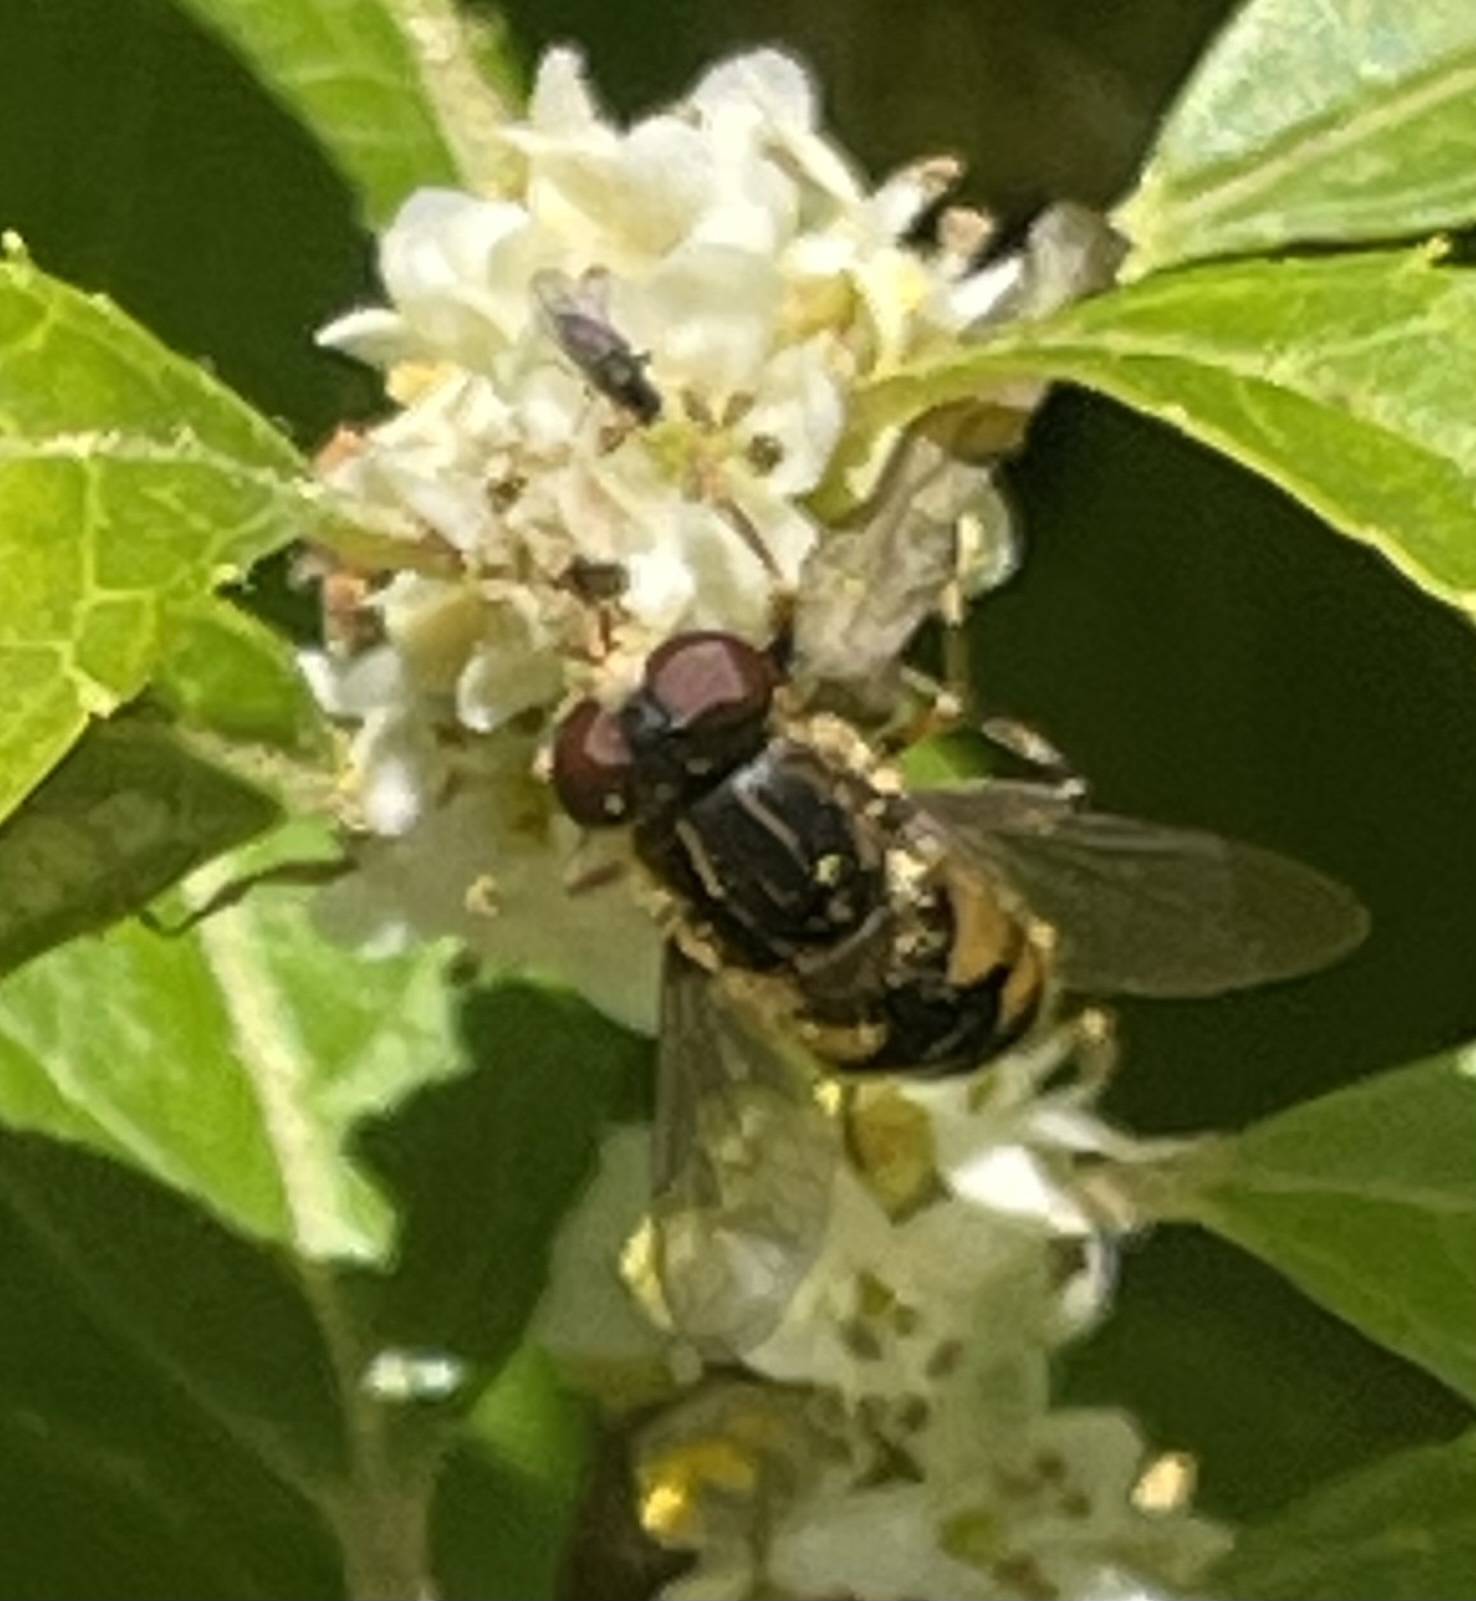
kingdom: Animalia
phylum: Arthropoda
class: Insecta
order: Diptera
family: Syrphidae
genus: Parhelophilus
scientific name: Parhelophilus rex
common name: Dusky bog fly
